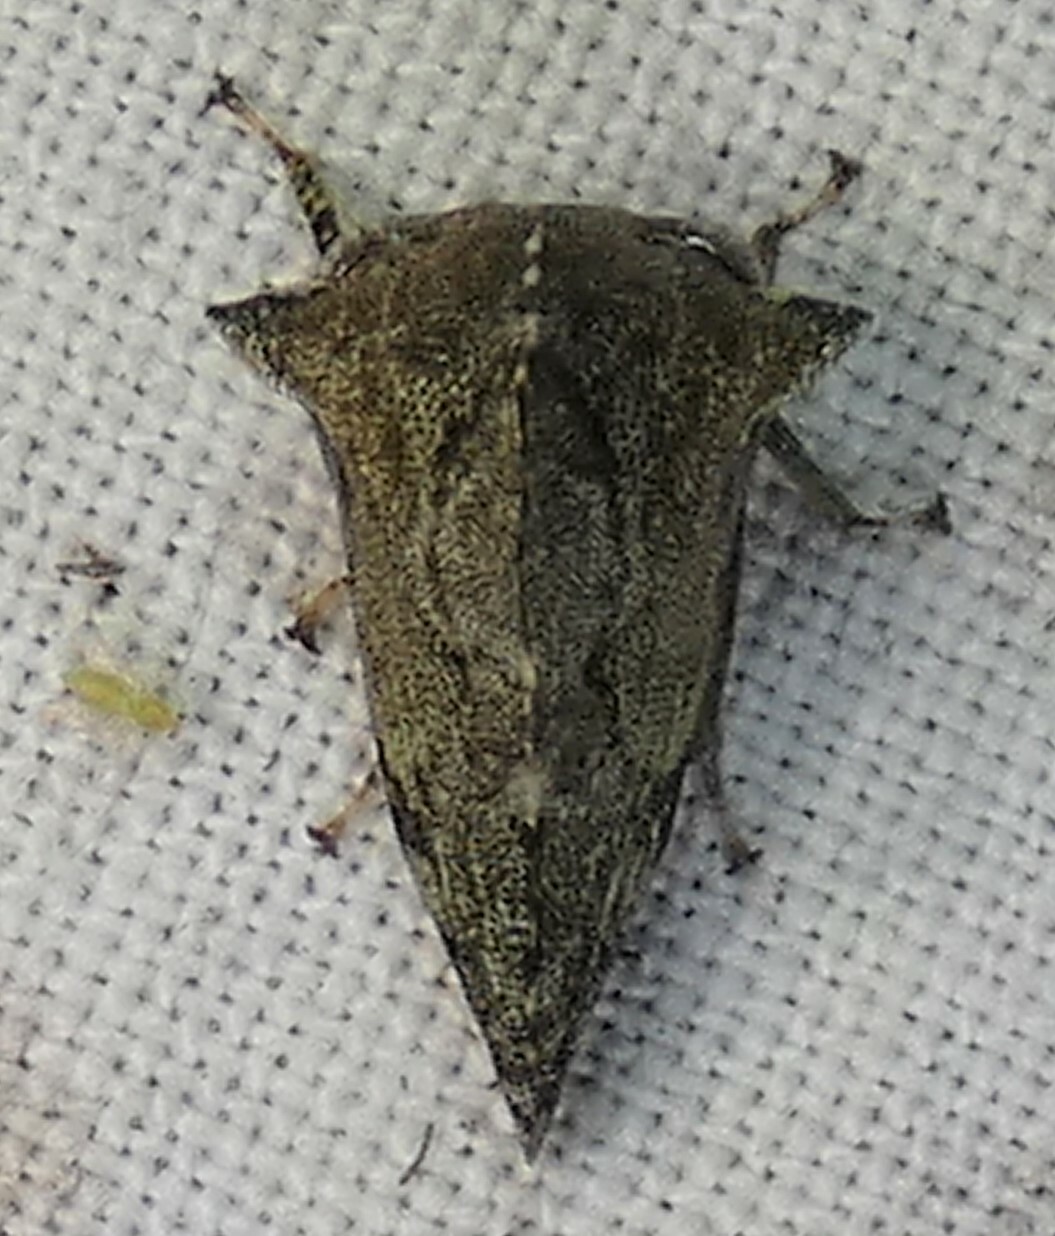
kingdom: Animalia
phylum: Arthropoda
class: Insecta
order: Hemiptera
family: Membracidae
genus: Heliria
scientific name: Heliria cornutula
